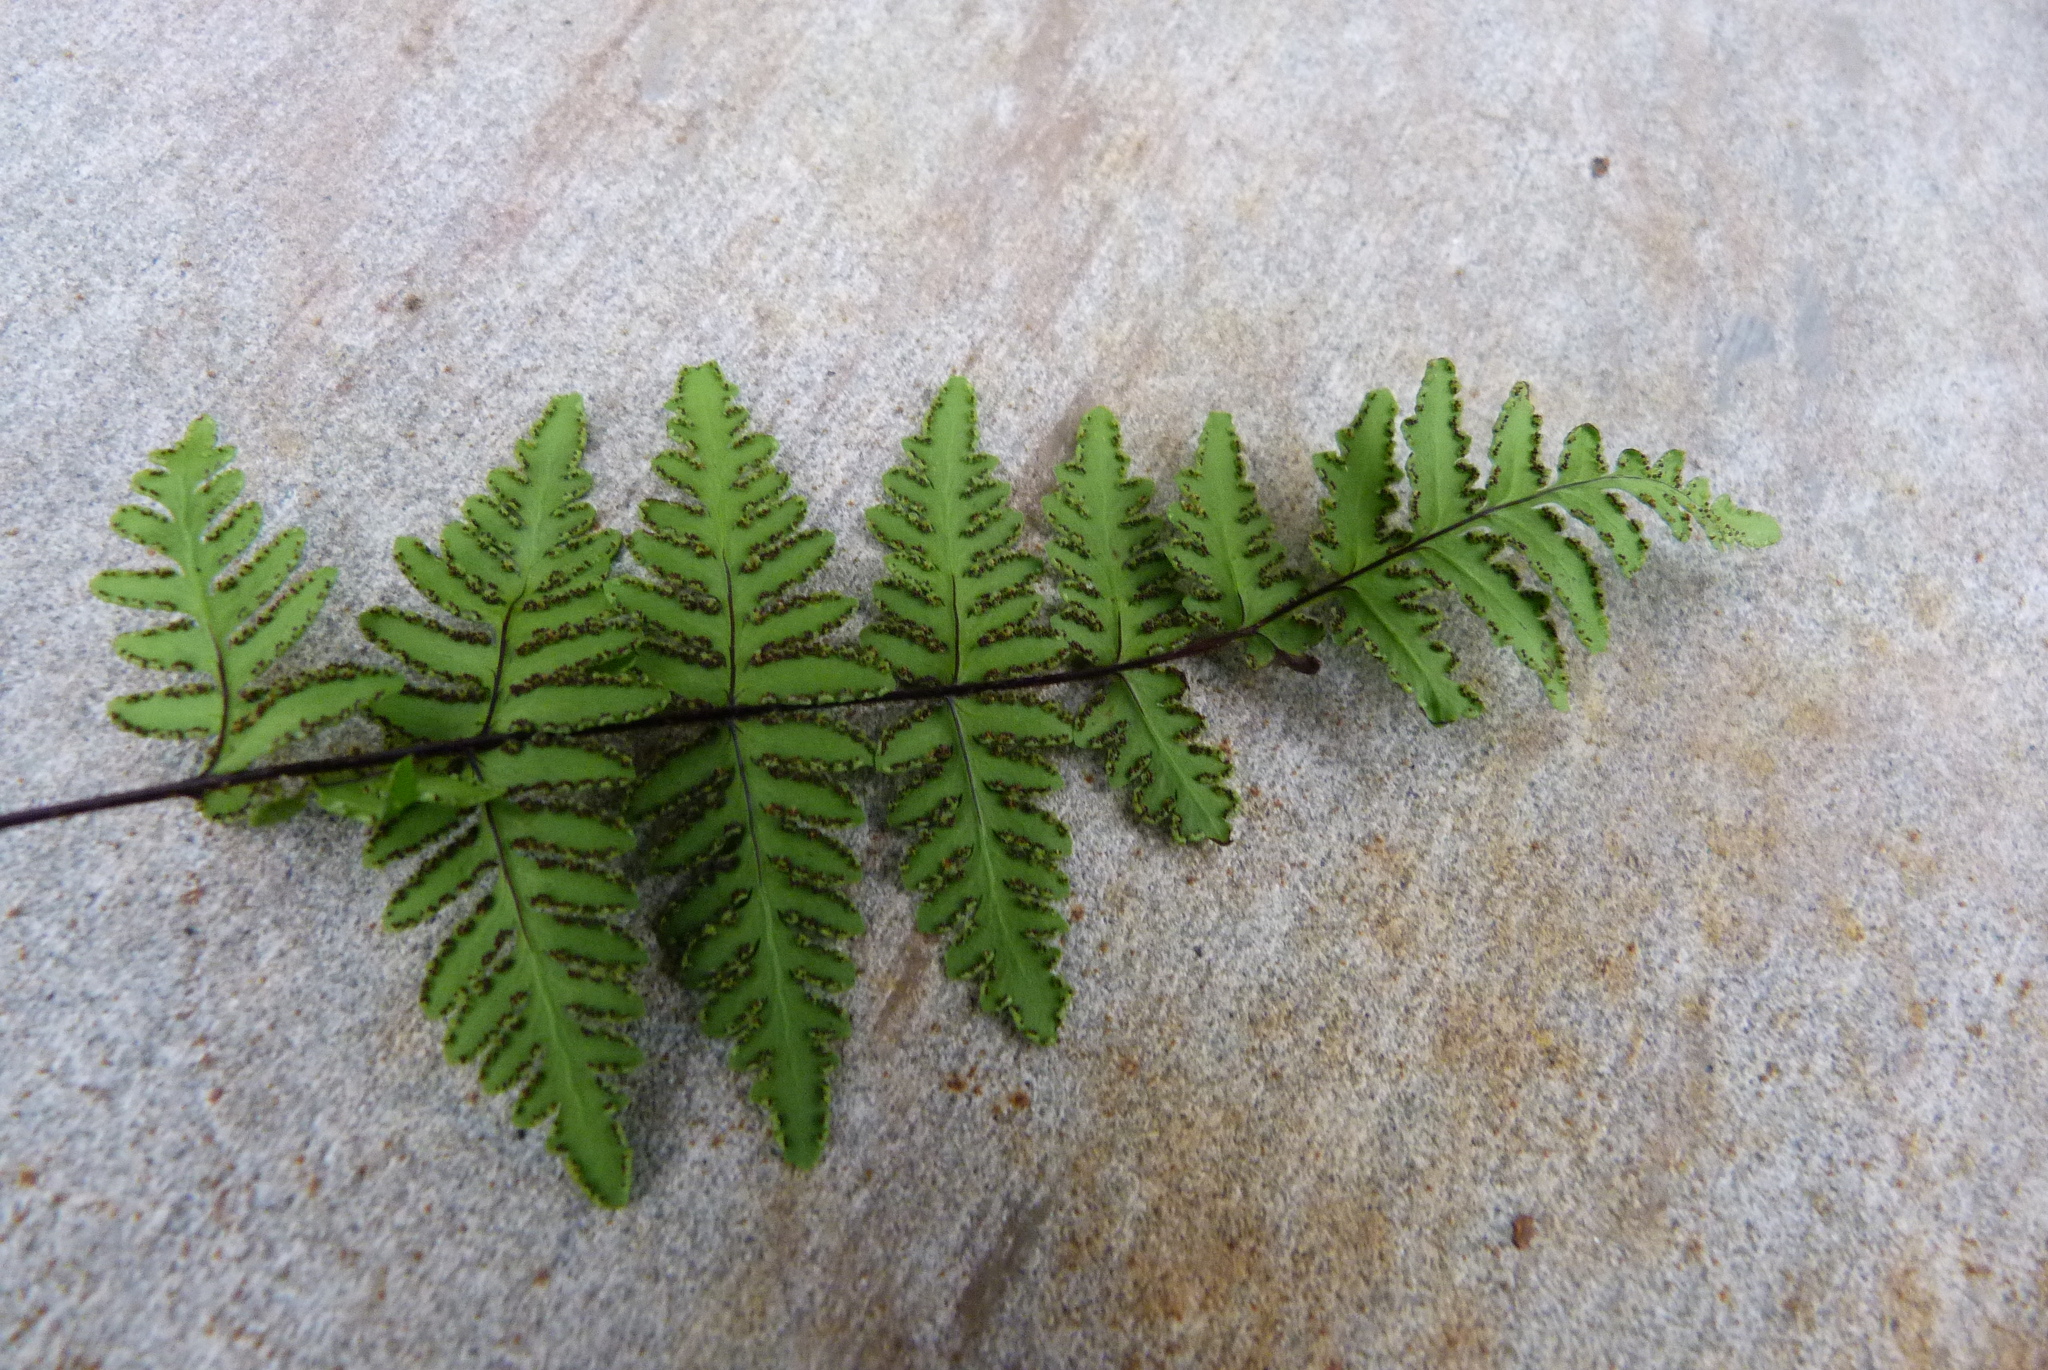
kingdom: Plantae
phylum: Tracheophyta
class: Polypodiopsida
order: Polypodiales
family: Pteridaceae
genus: Oeosporangium
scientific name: Oeosporangium chusanum
